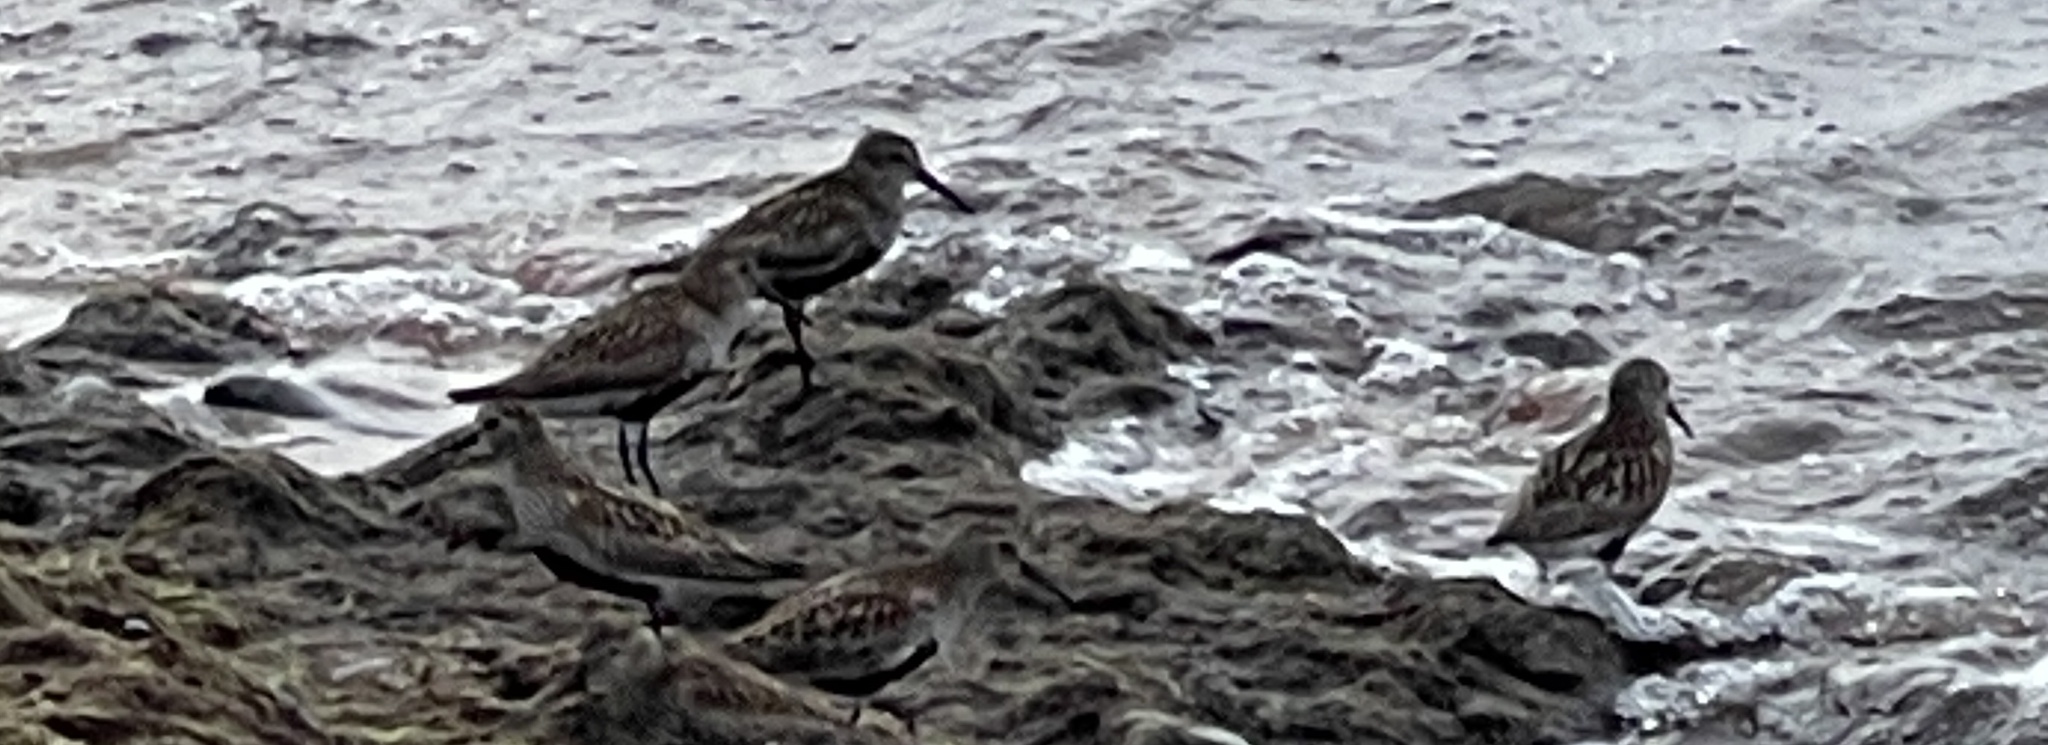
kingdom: Animalia
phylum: Chordata
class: Aves
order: Charadriiformes
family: Scolopacidae
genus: Calidris
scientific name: Calidris alpina
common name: Dunlin
